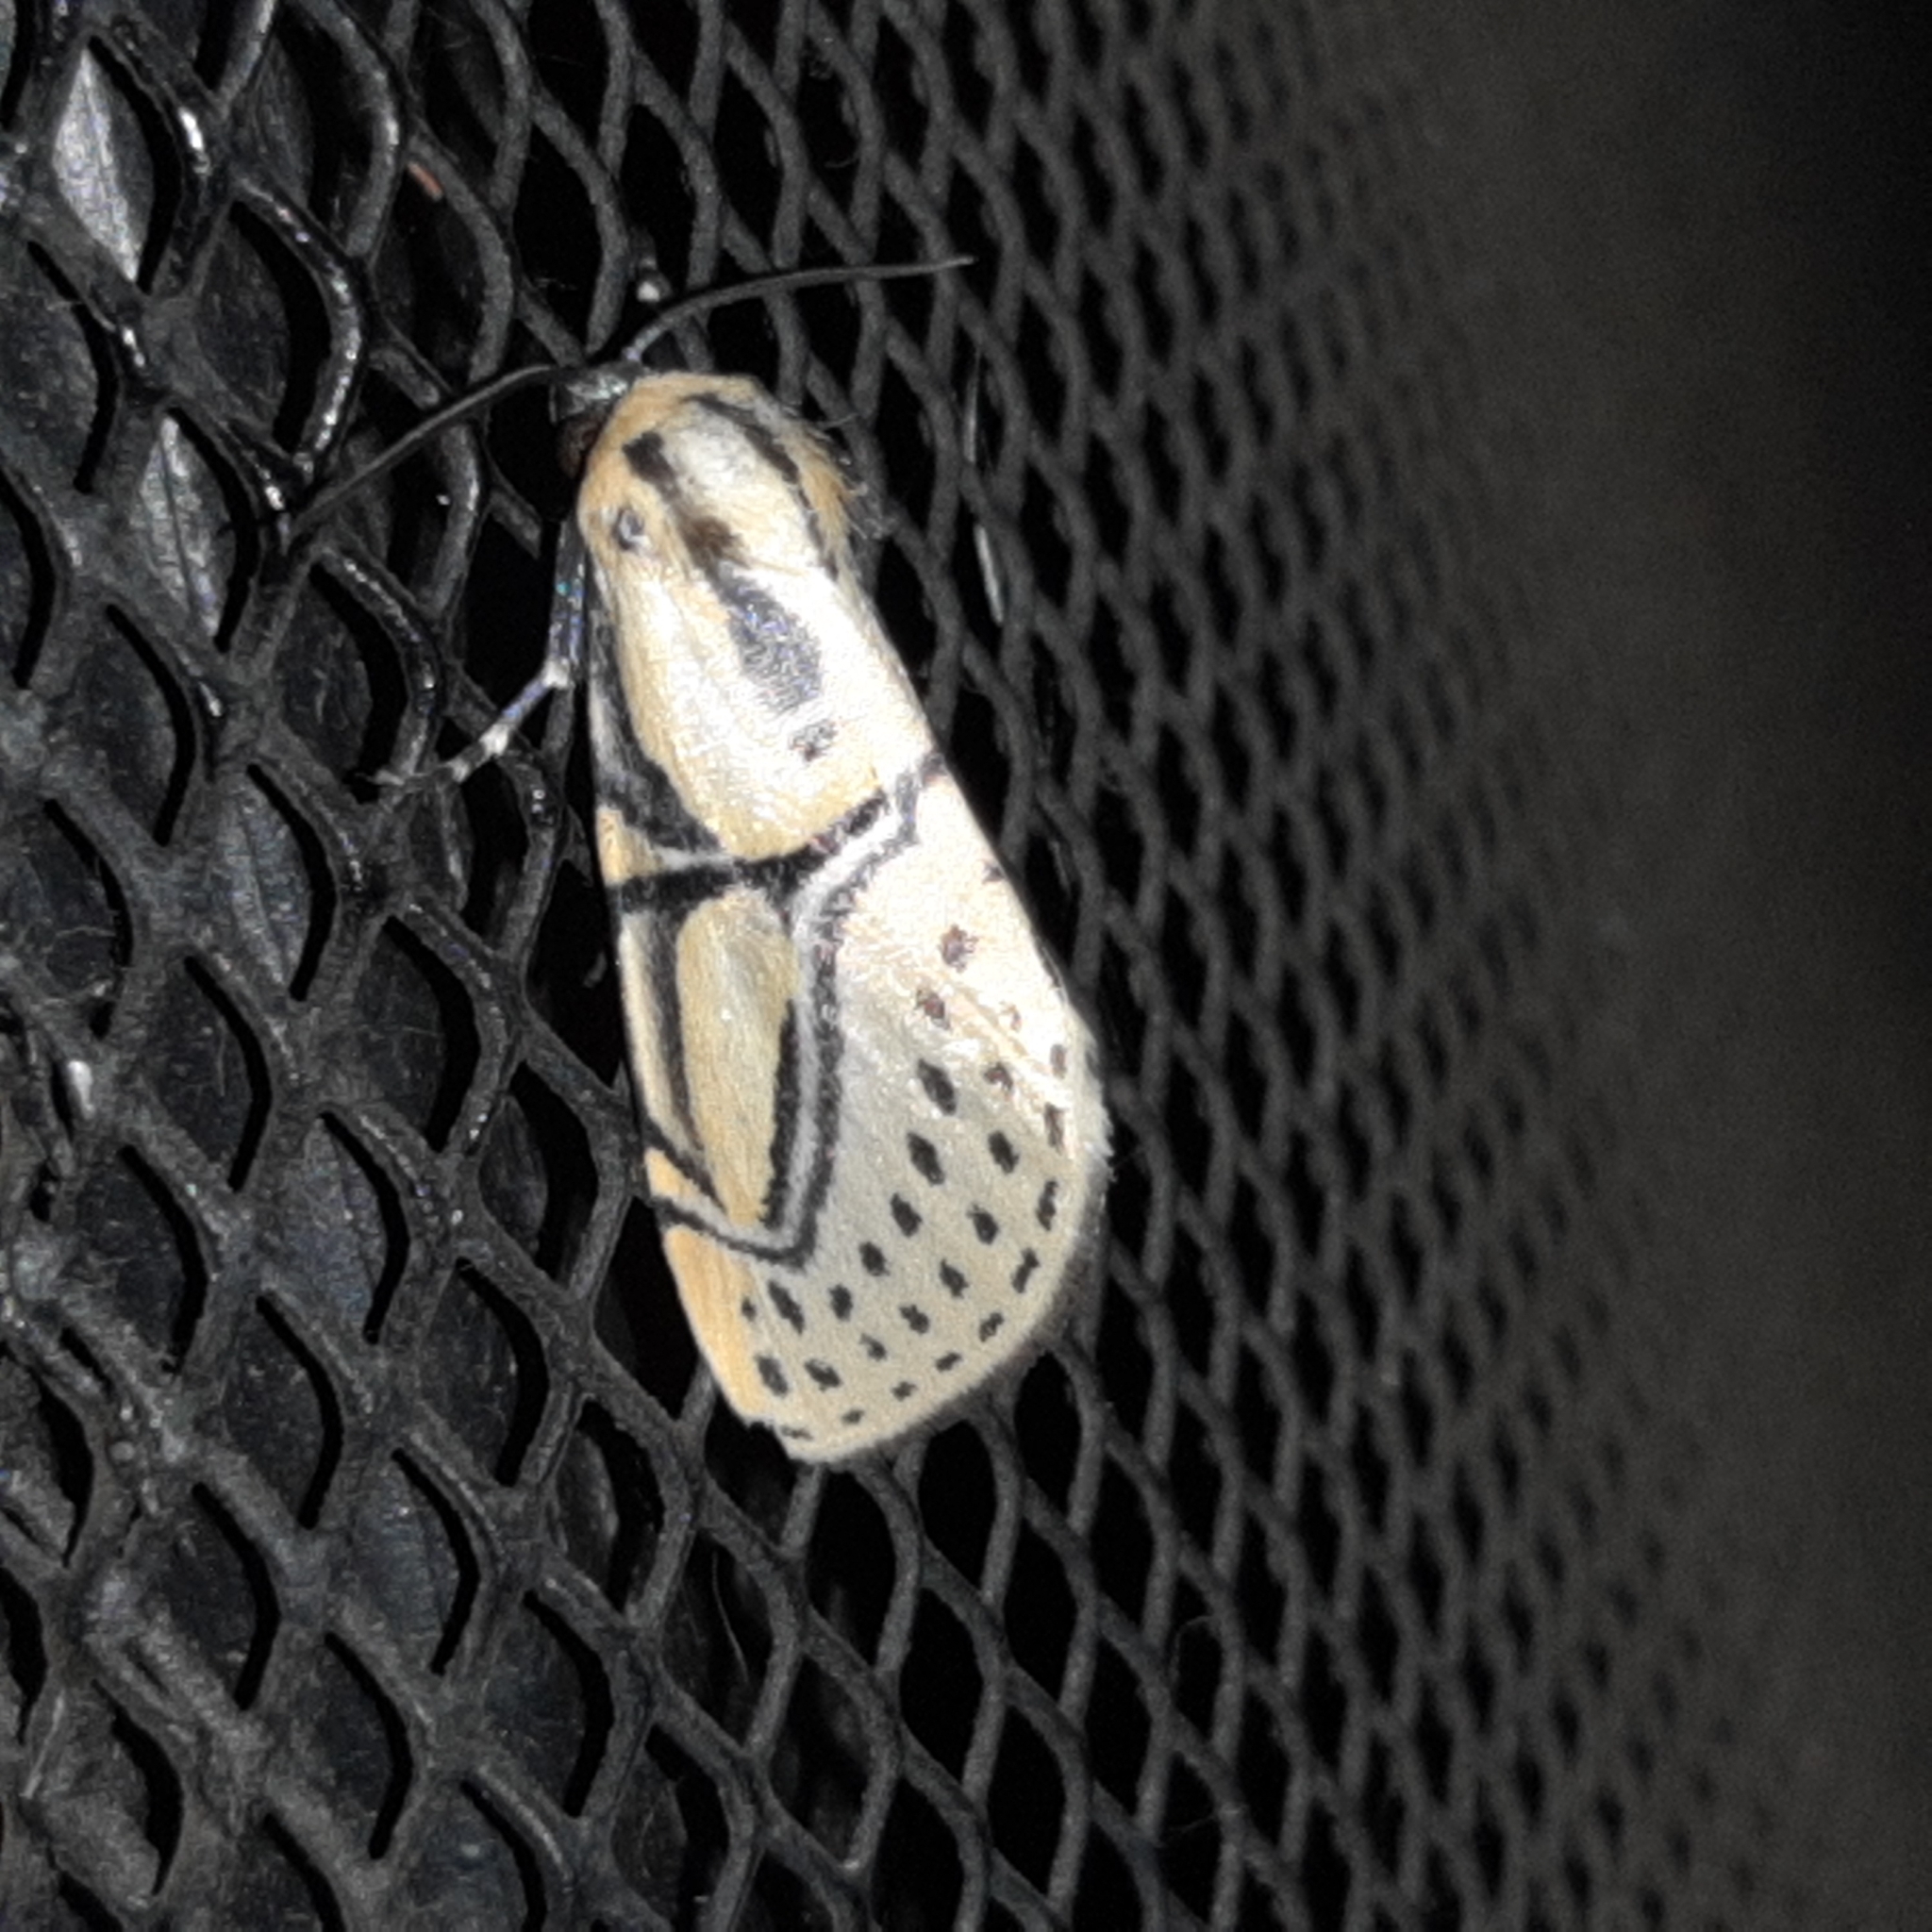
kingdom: Animalia
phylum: Arthropoda
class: Insecta
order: Lepidoptera
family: Erebidae
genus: Diphthera
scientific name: Diphthera festiva
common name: Hieroglyphic moth
